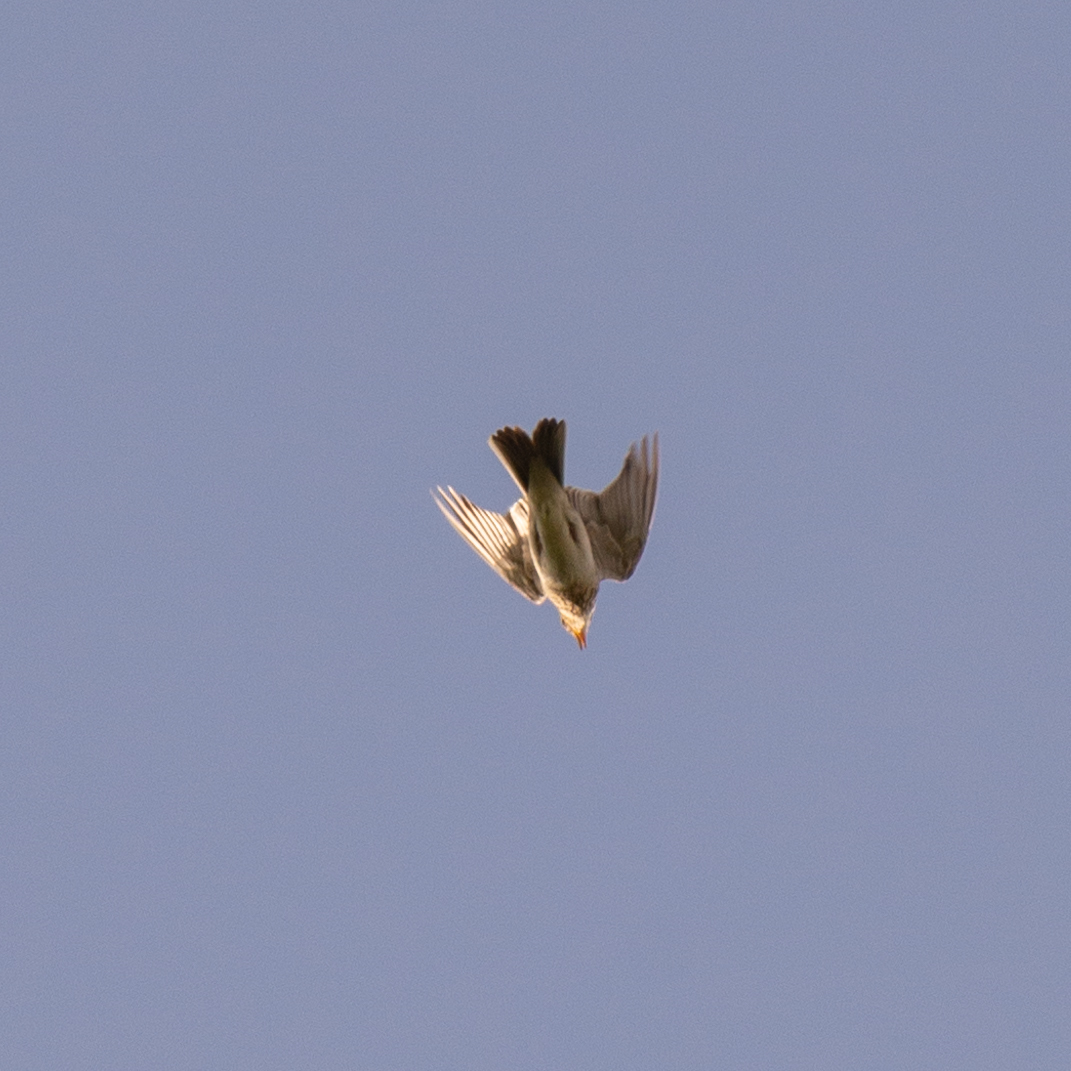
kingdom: Animalia
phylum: Chordata
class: Aves
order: Passeriformes
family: Alaudidae
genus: Alauda
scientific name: Alauda arvensis
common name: Eurasian skylark
